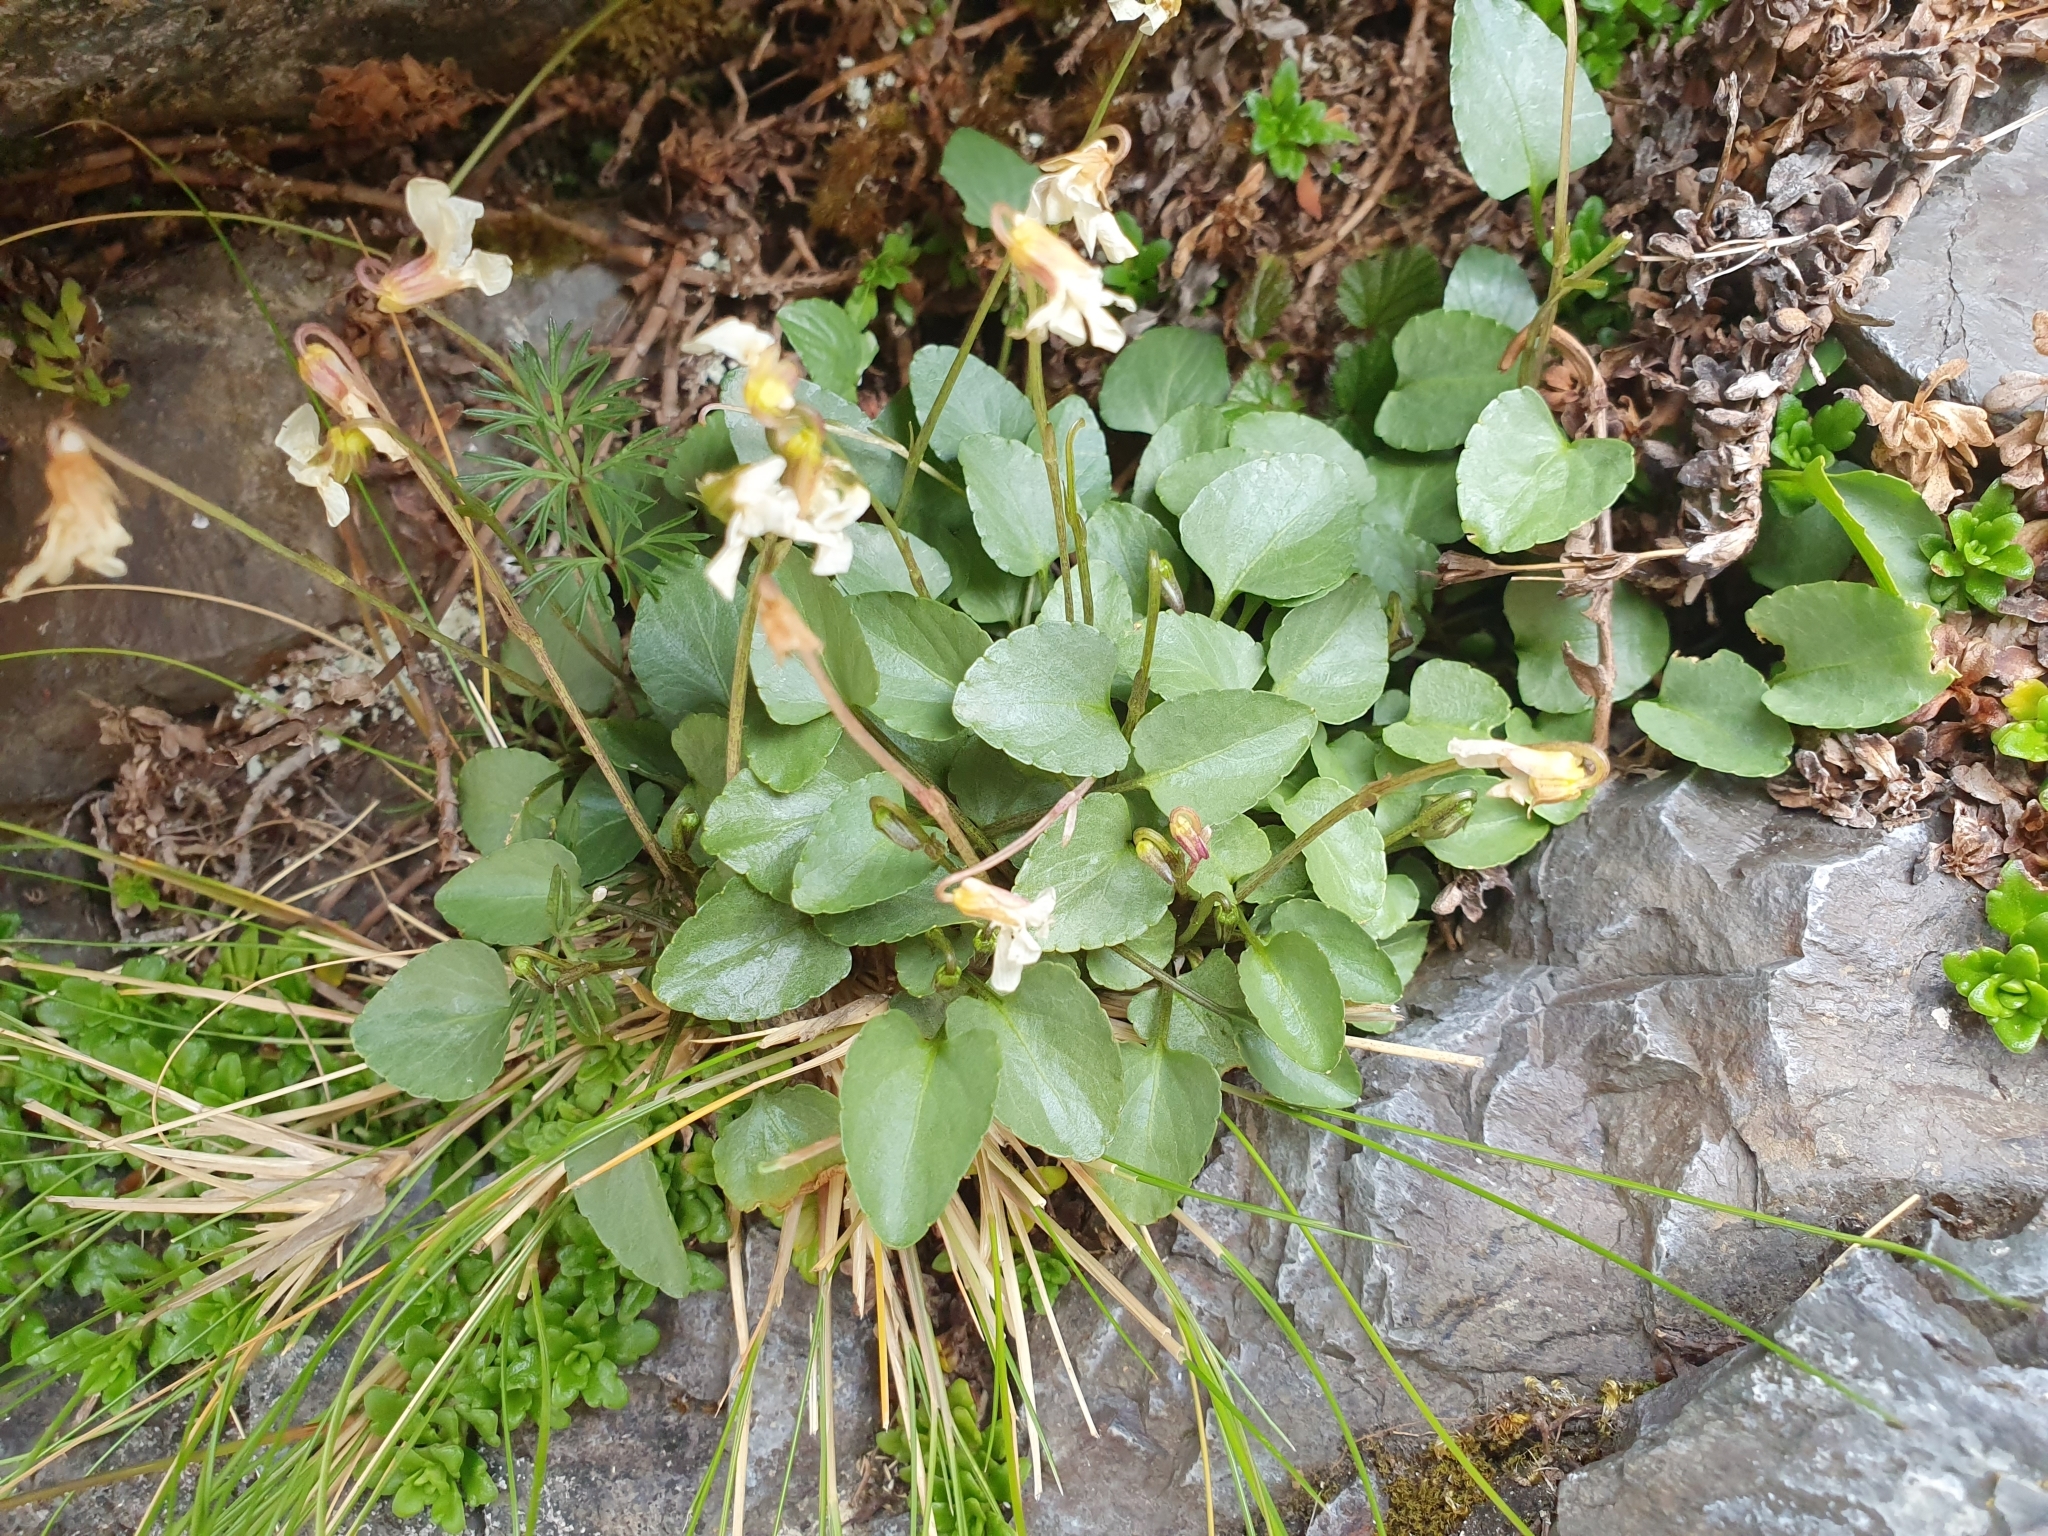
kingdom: Plantae
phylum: Tracheophyta
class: Magnoliopsida
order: Malpighiales
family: Violaceae
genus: Viola
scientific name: Viola cunninghamii
